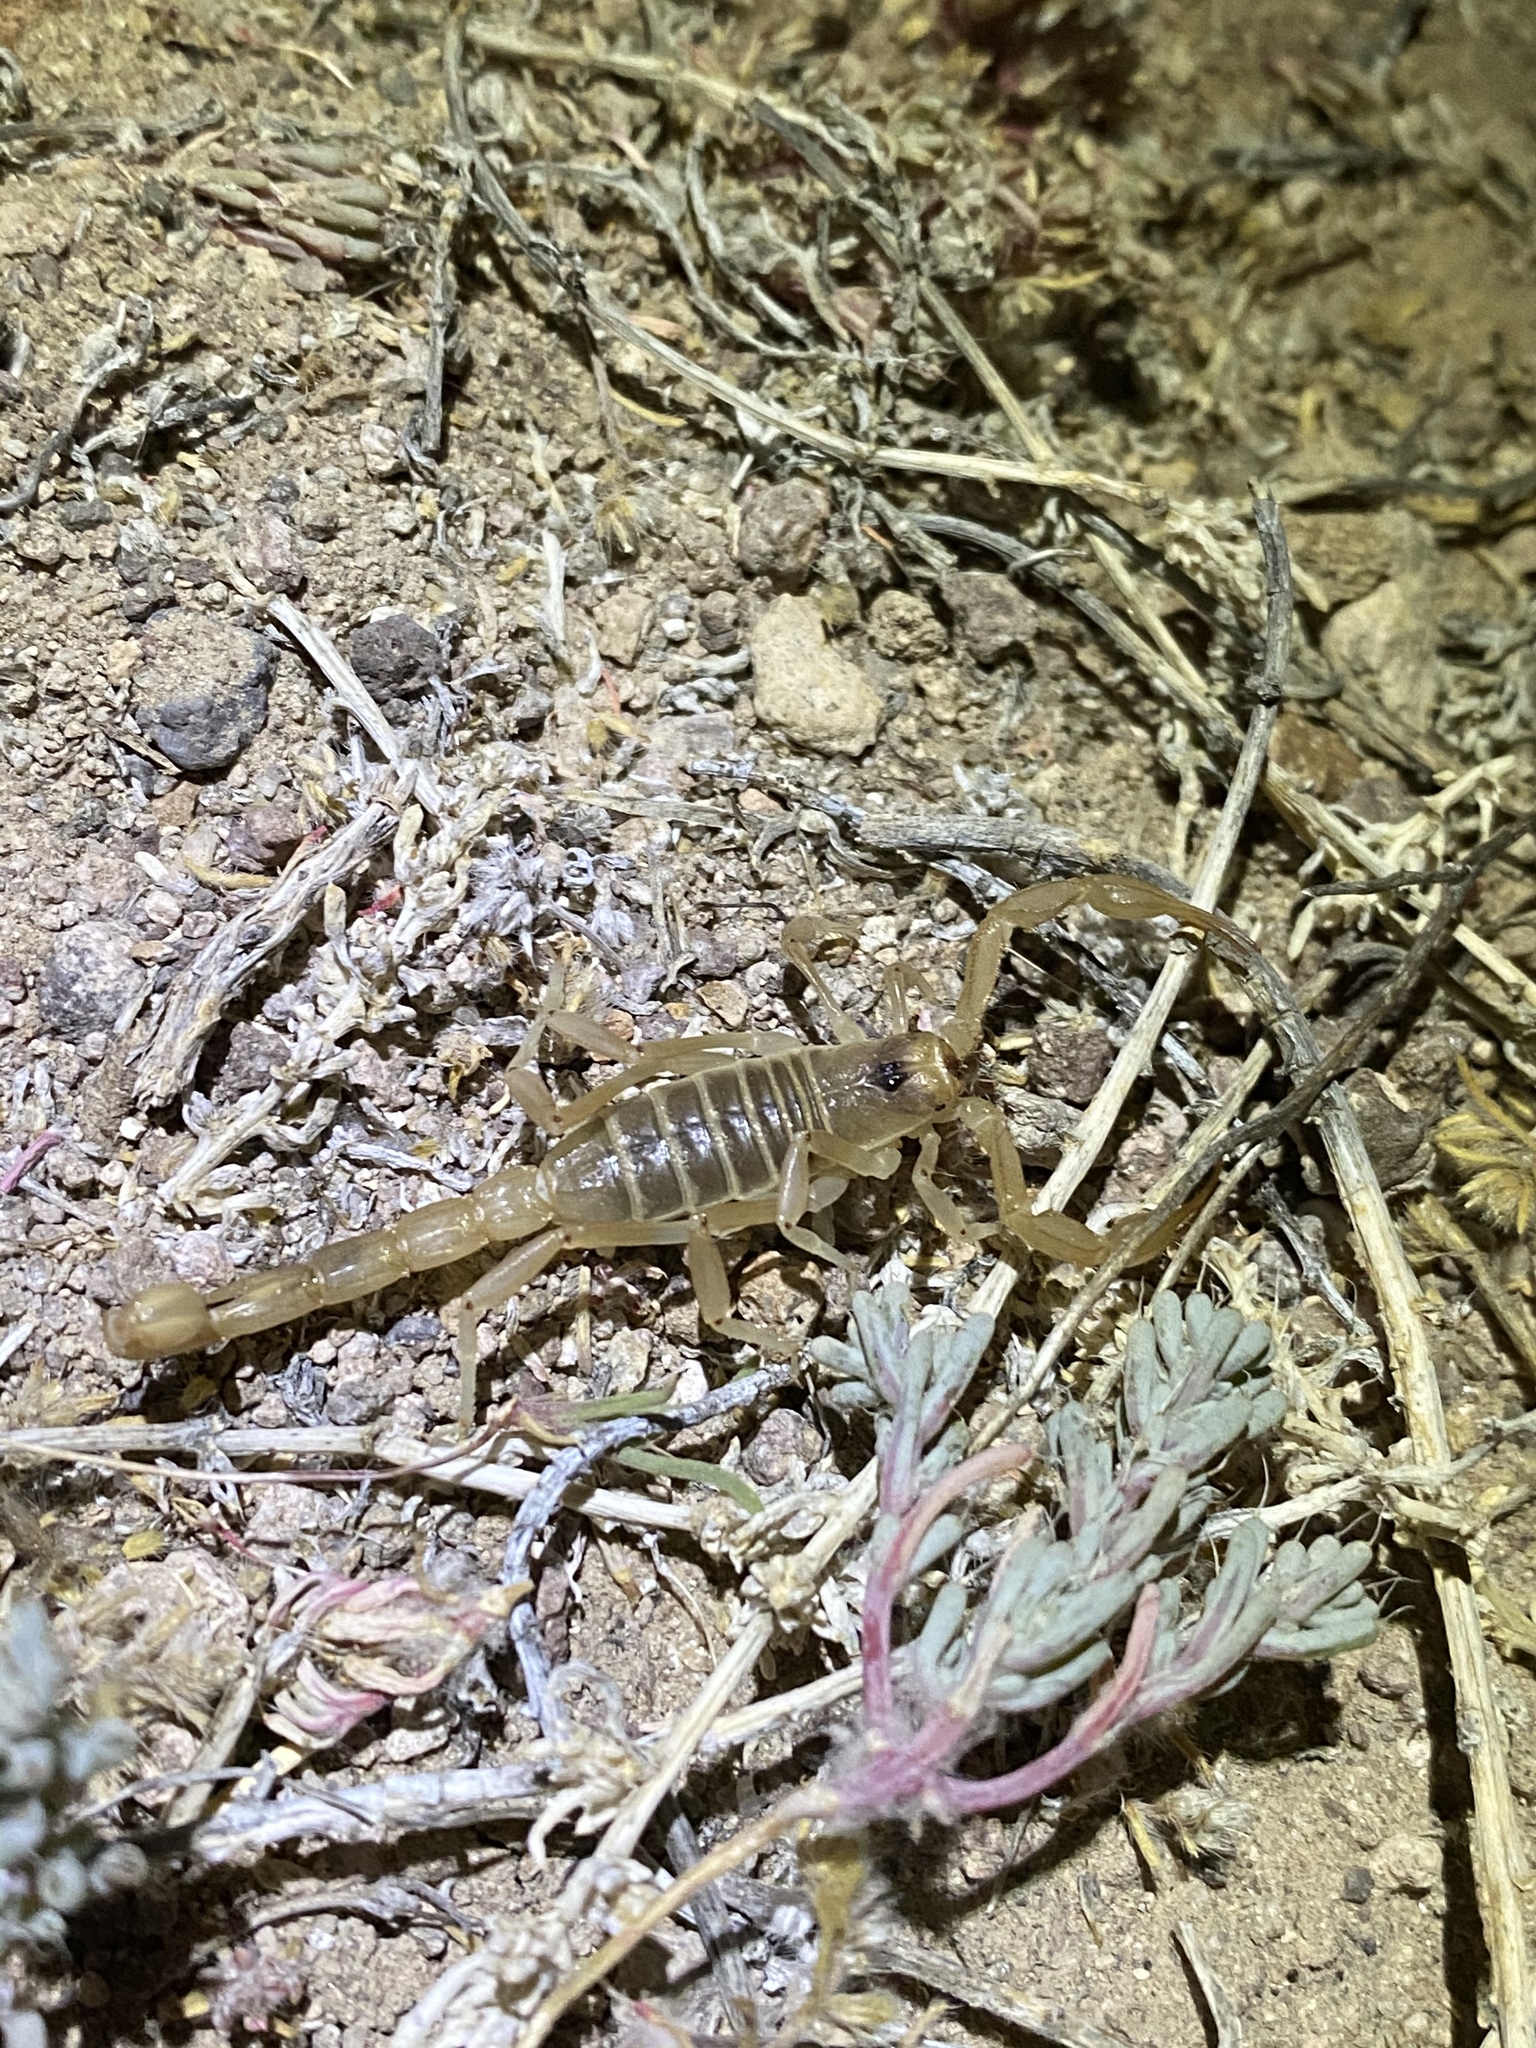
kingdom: Animalia
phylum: Arthropoda
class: Arachnida
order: Scorpiones
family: Vaejovidae
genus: Paruroctonus
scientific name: Paruroctonus becki
